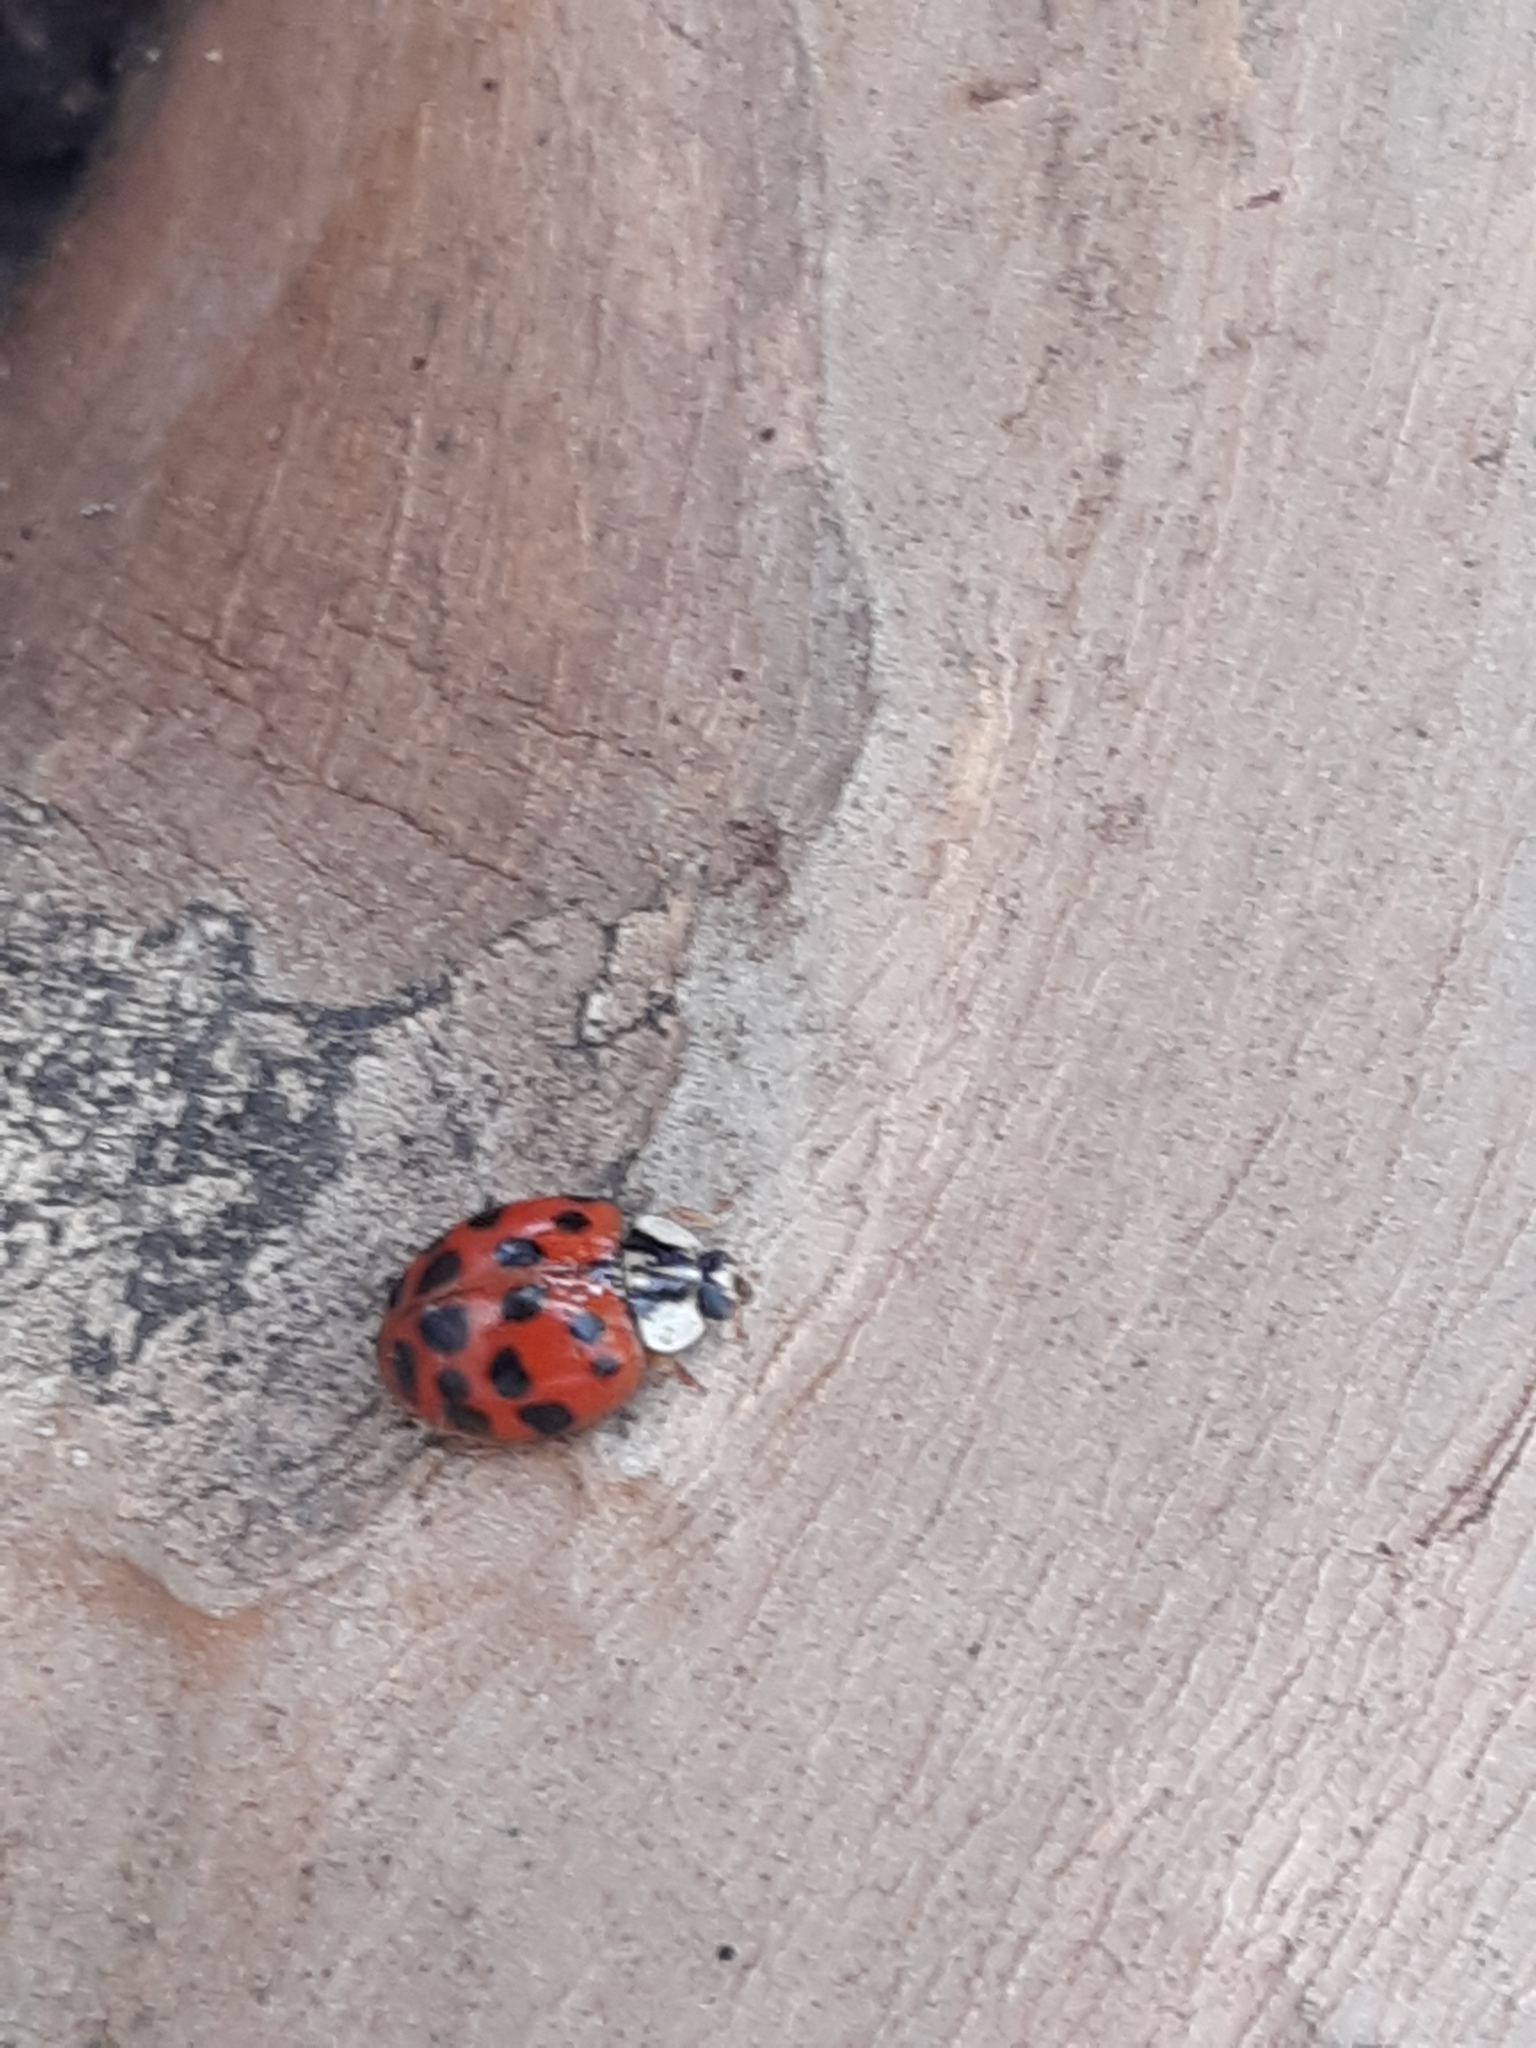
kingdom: Animalia
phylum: Arthropoda
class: Insecta
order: Coleoptera
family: Coccinellidae
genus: Harmonia
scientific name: Harmonia axyridis
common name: Harlequin ladybird
